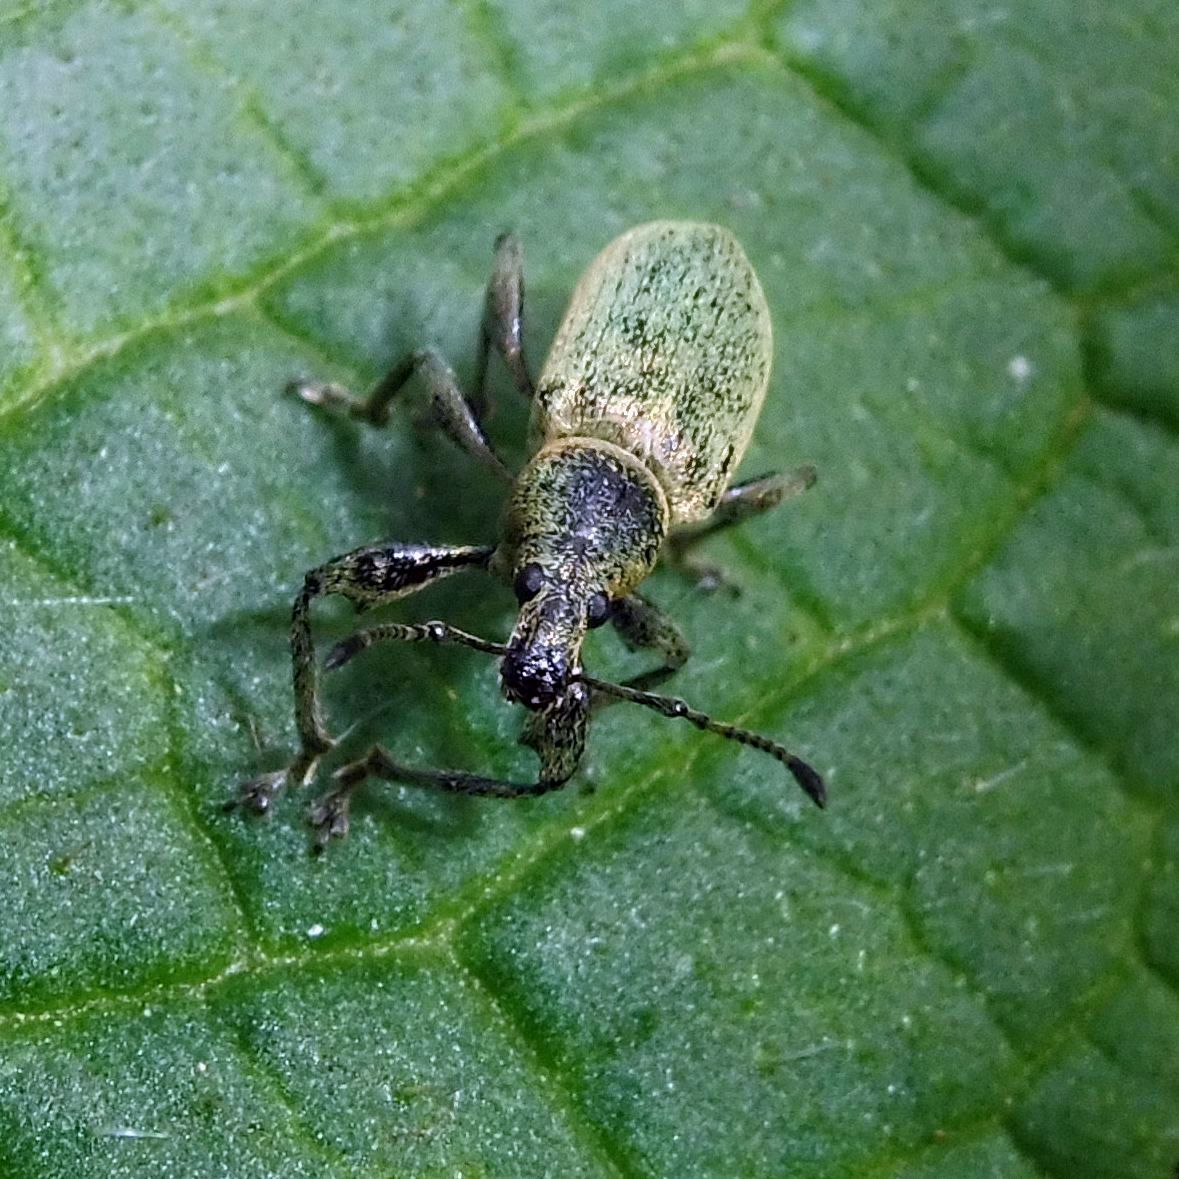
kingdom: Animalia
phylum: Arthropoda
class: Insecta
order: Coleoptera
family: Curculionidae
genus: Phyllobius
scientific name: Phyllobius pomaceus
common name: Green nettle weevil
